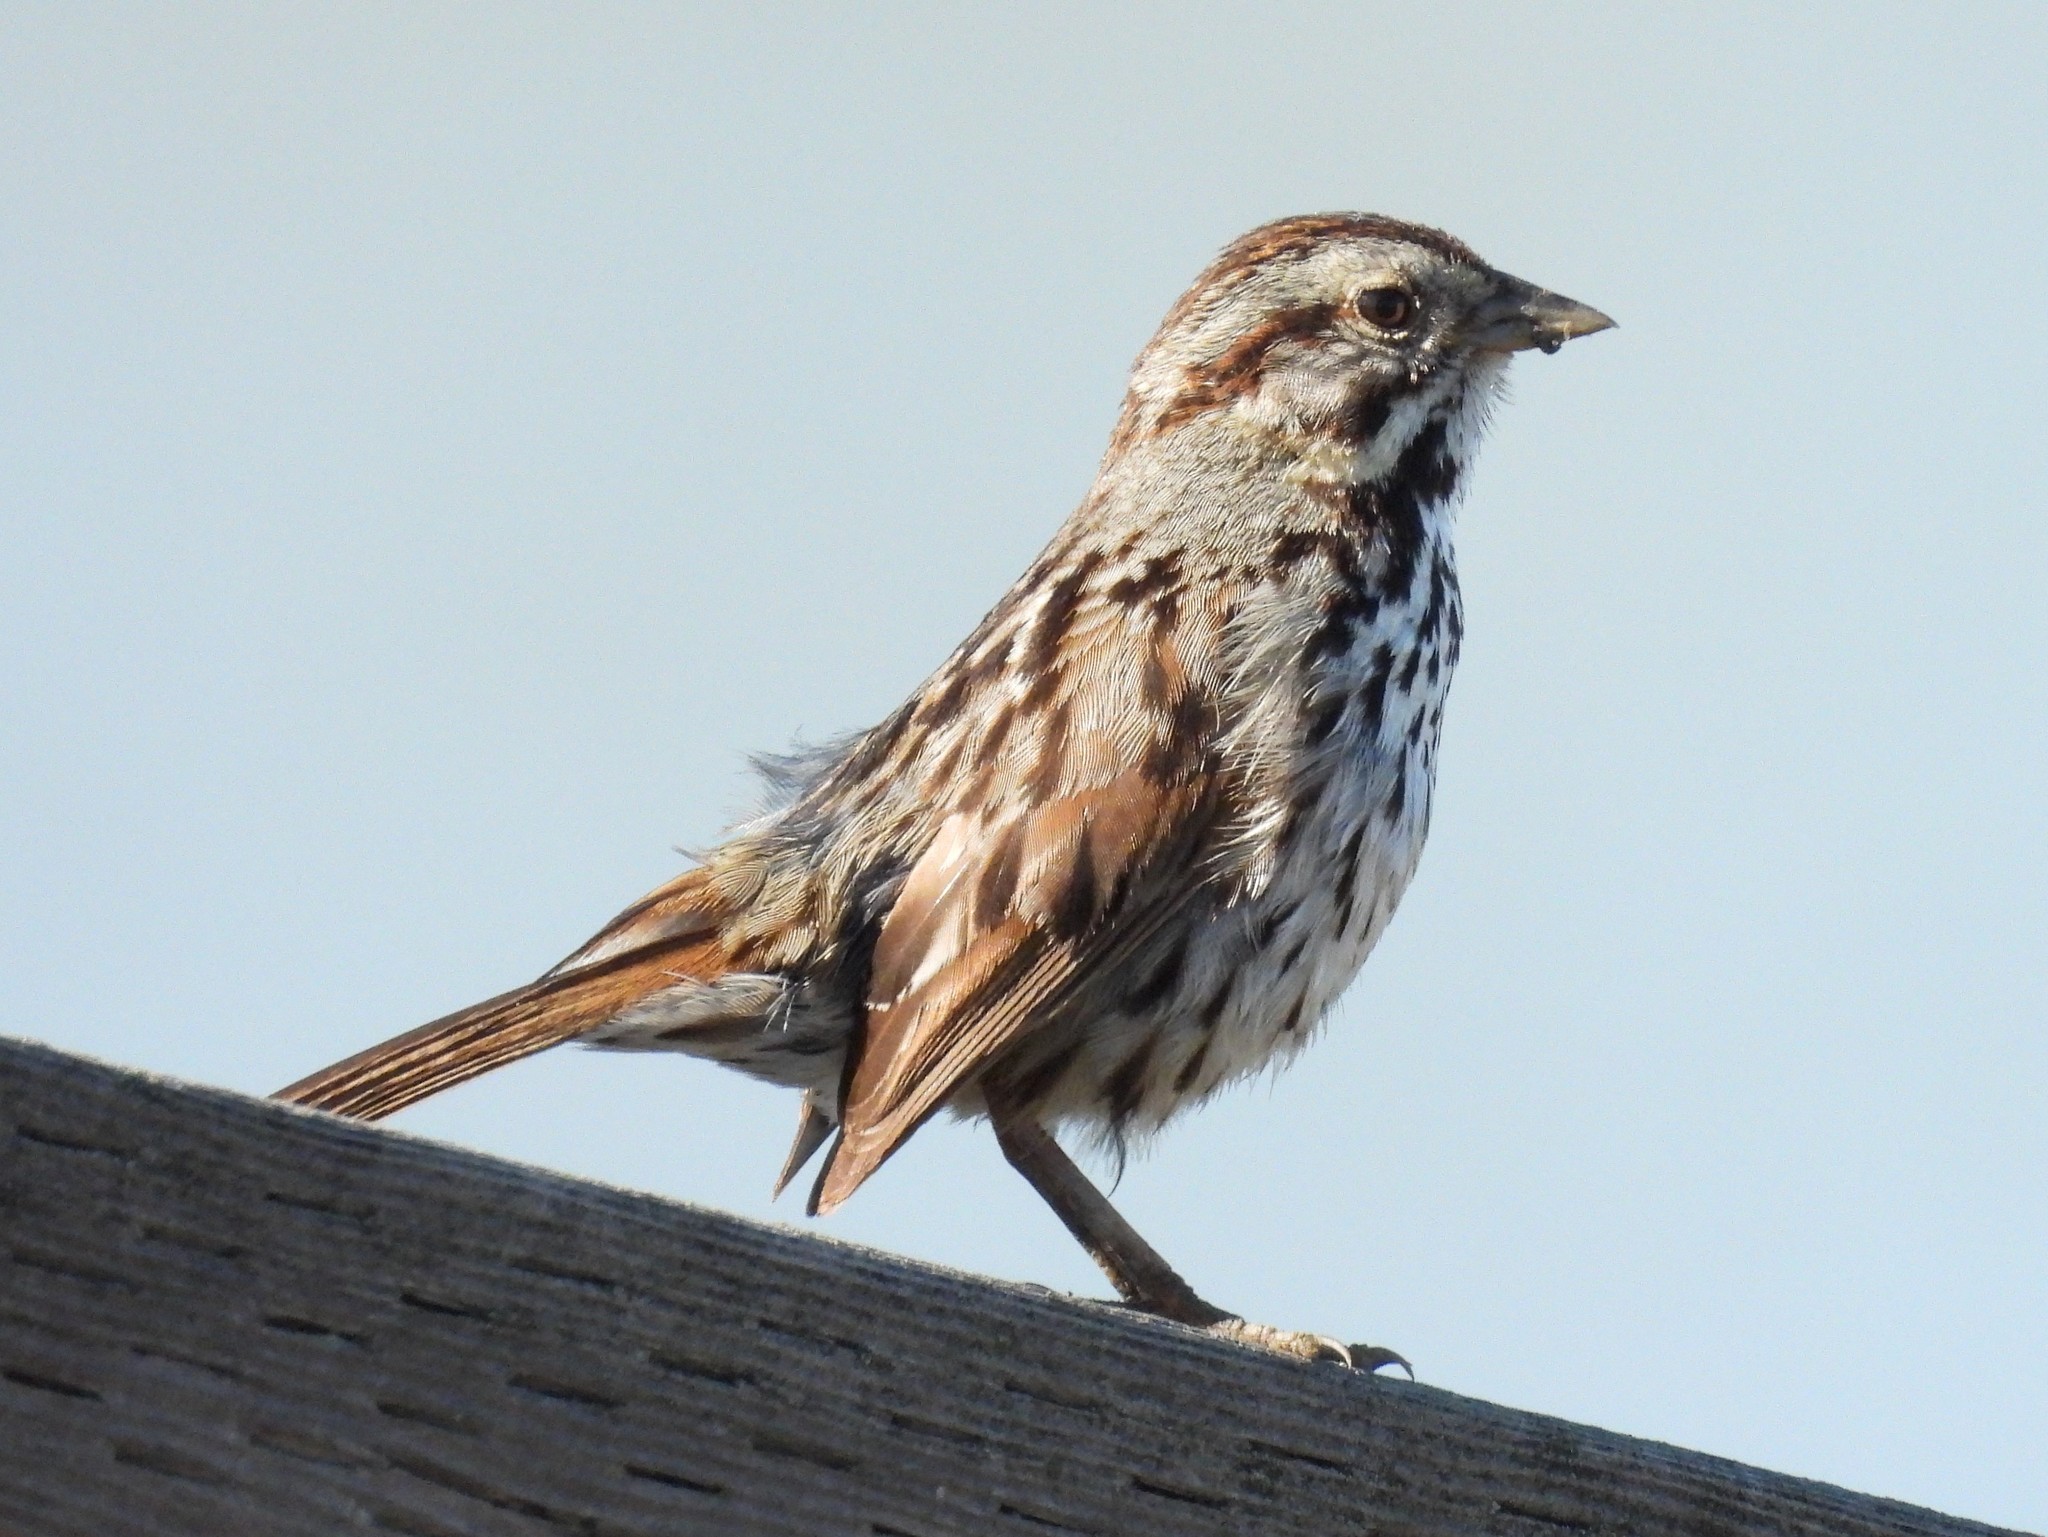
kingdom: Animalia
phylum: Chordata
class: Aves
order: Passeriformes
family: Passerellidae
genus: Melospiza
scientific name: Melospiza melodia
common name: Song sparrow
